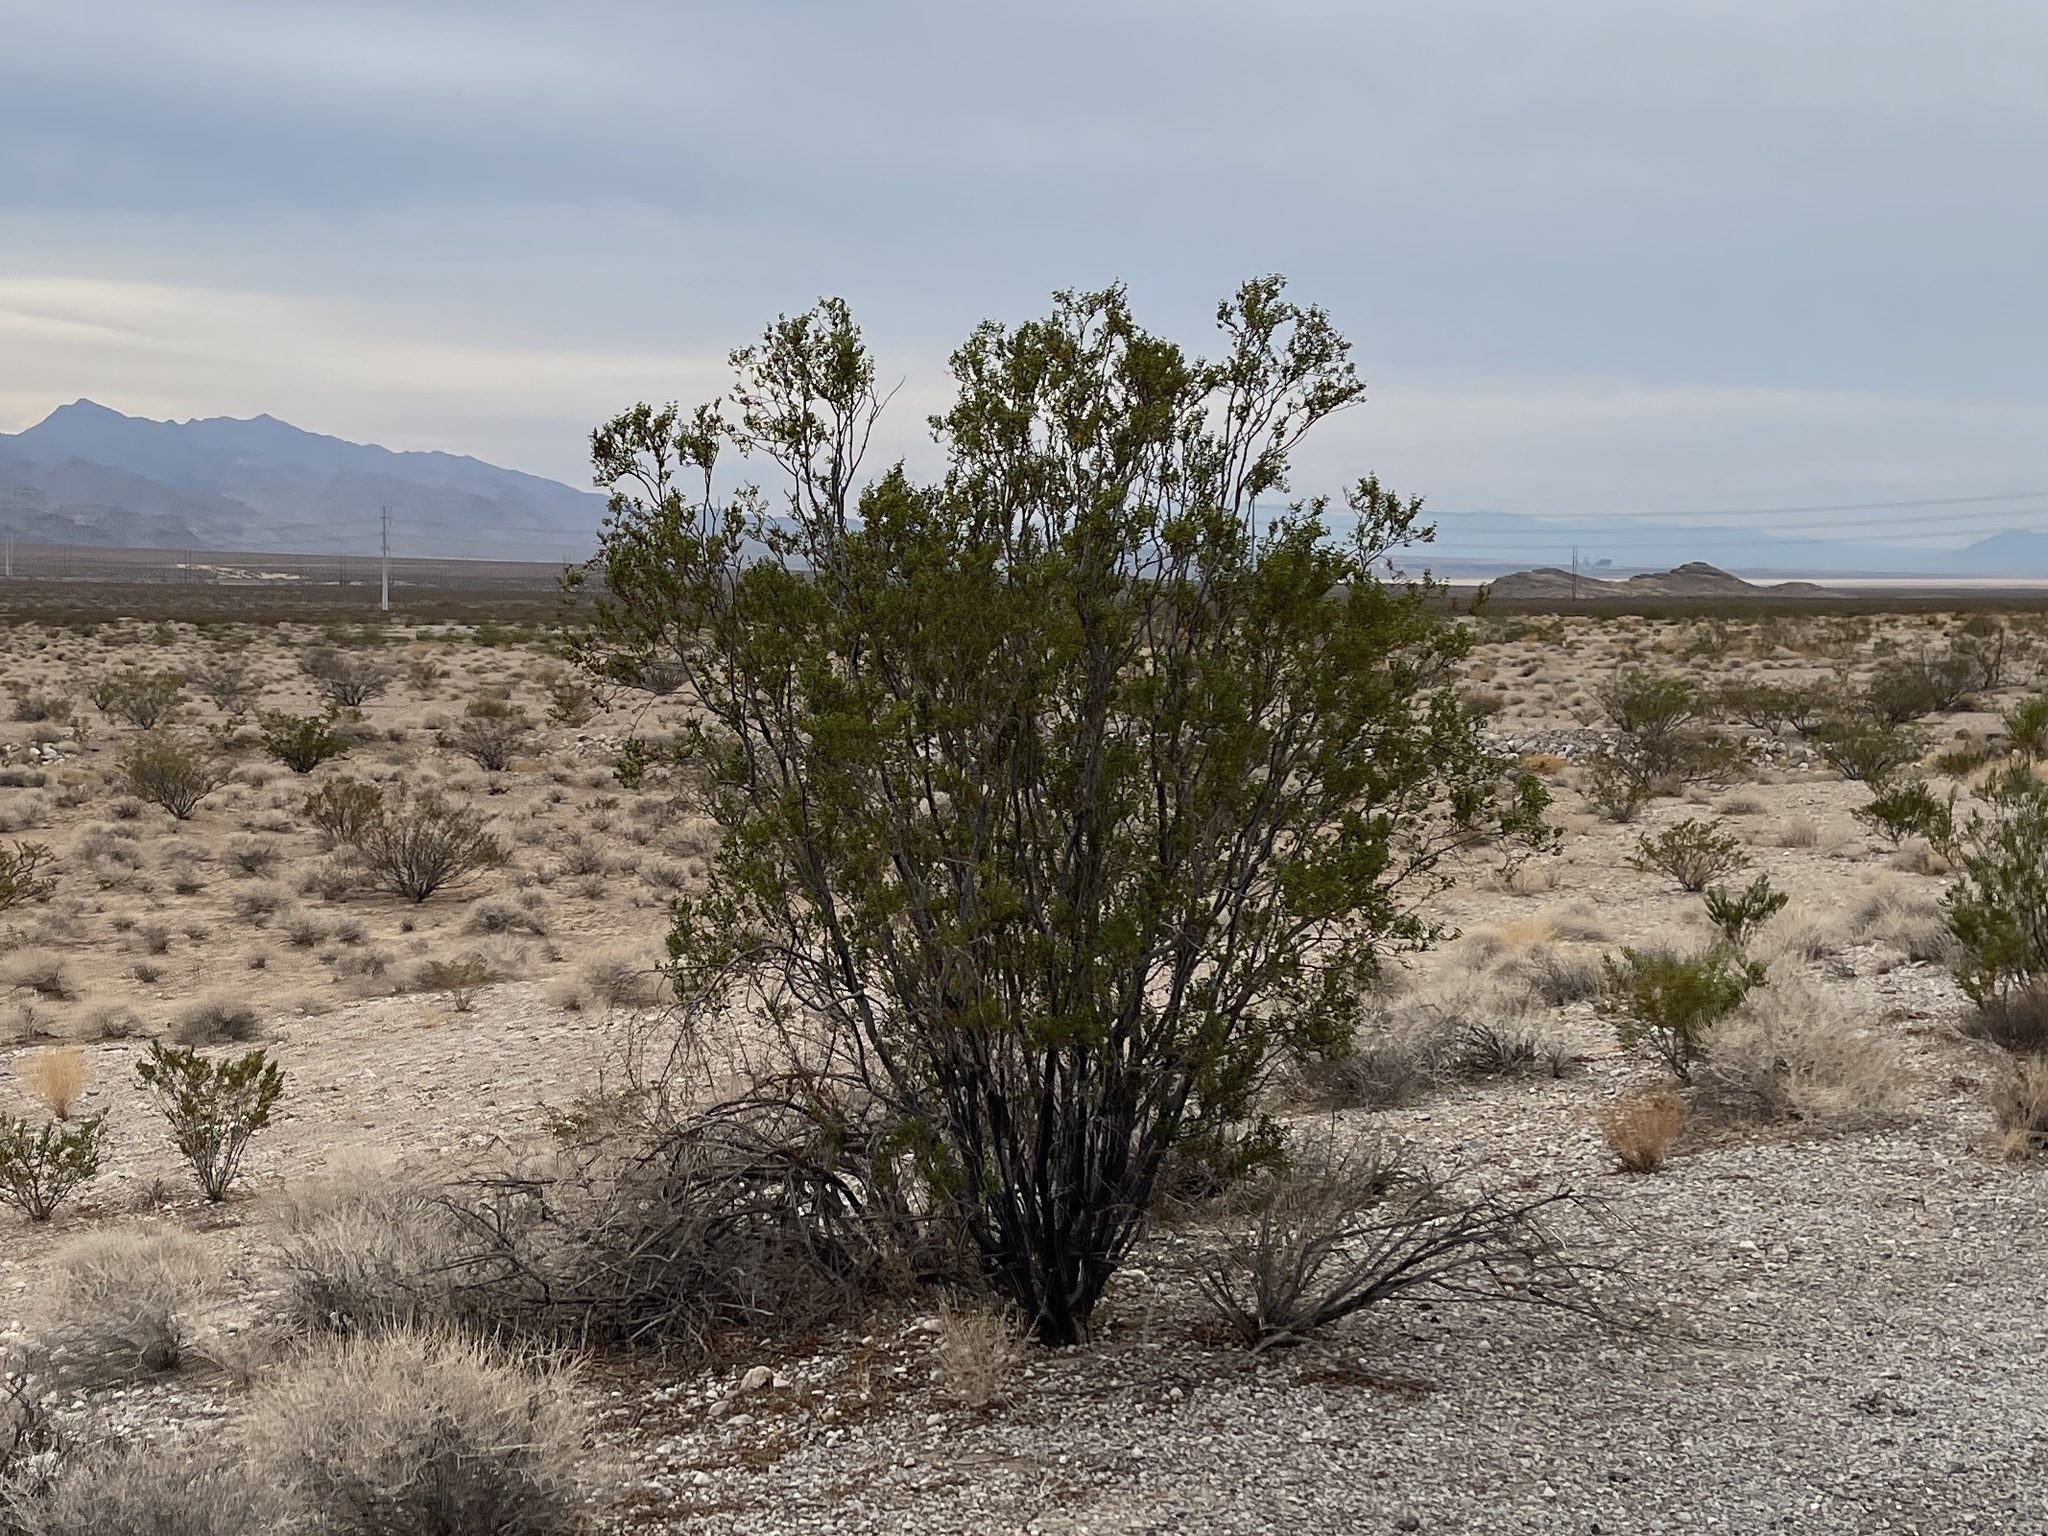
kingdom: Plantae
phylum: Tracheophyta
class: Magnoliopsida
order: Zygophyllales
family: Zygophyllaceae
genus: Larrea
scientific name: Larrea tridentata
